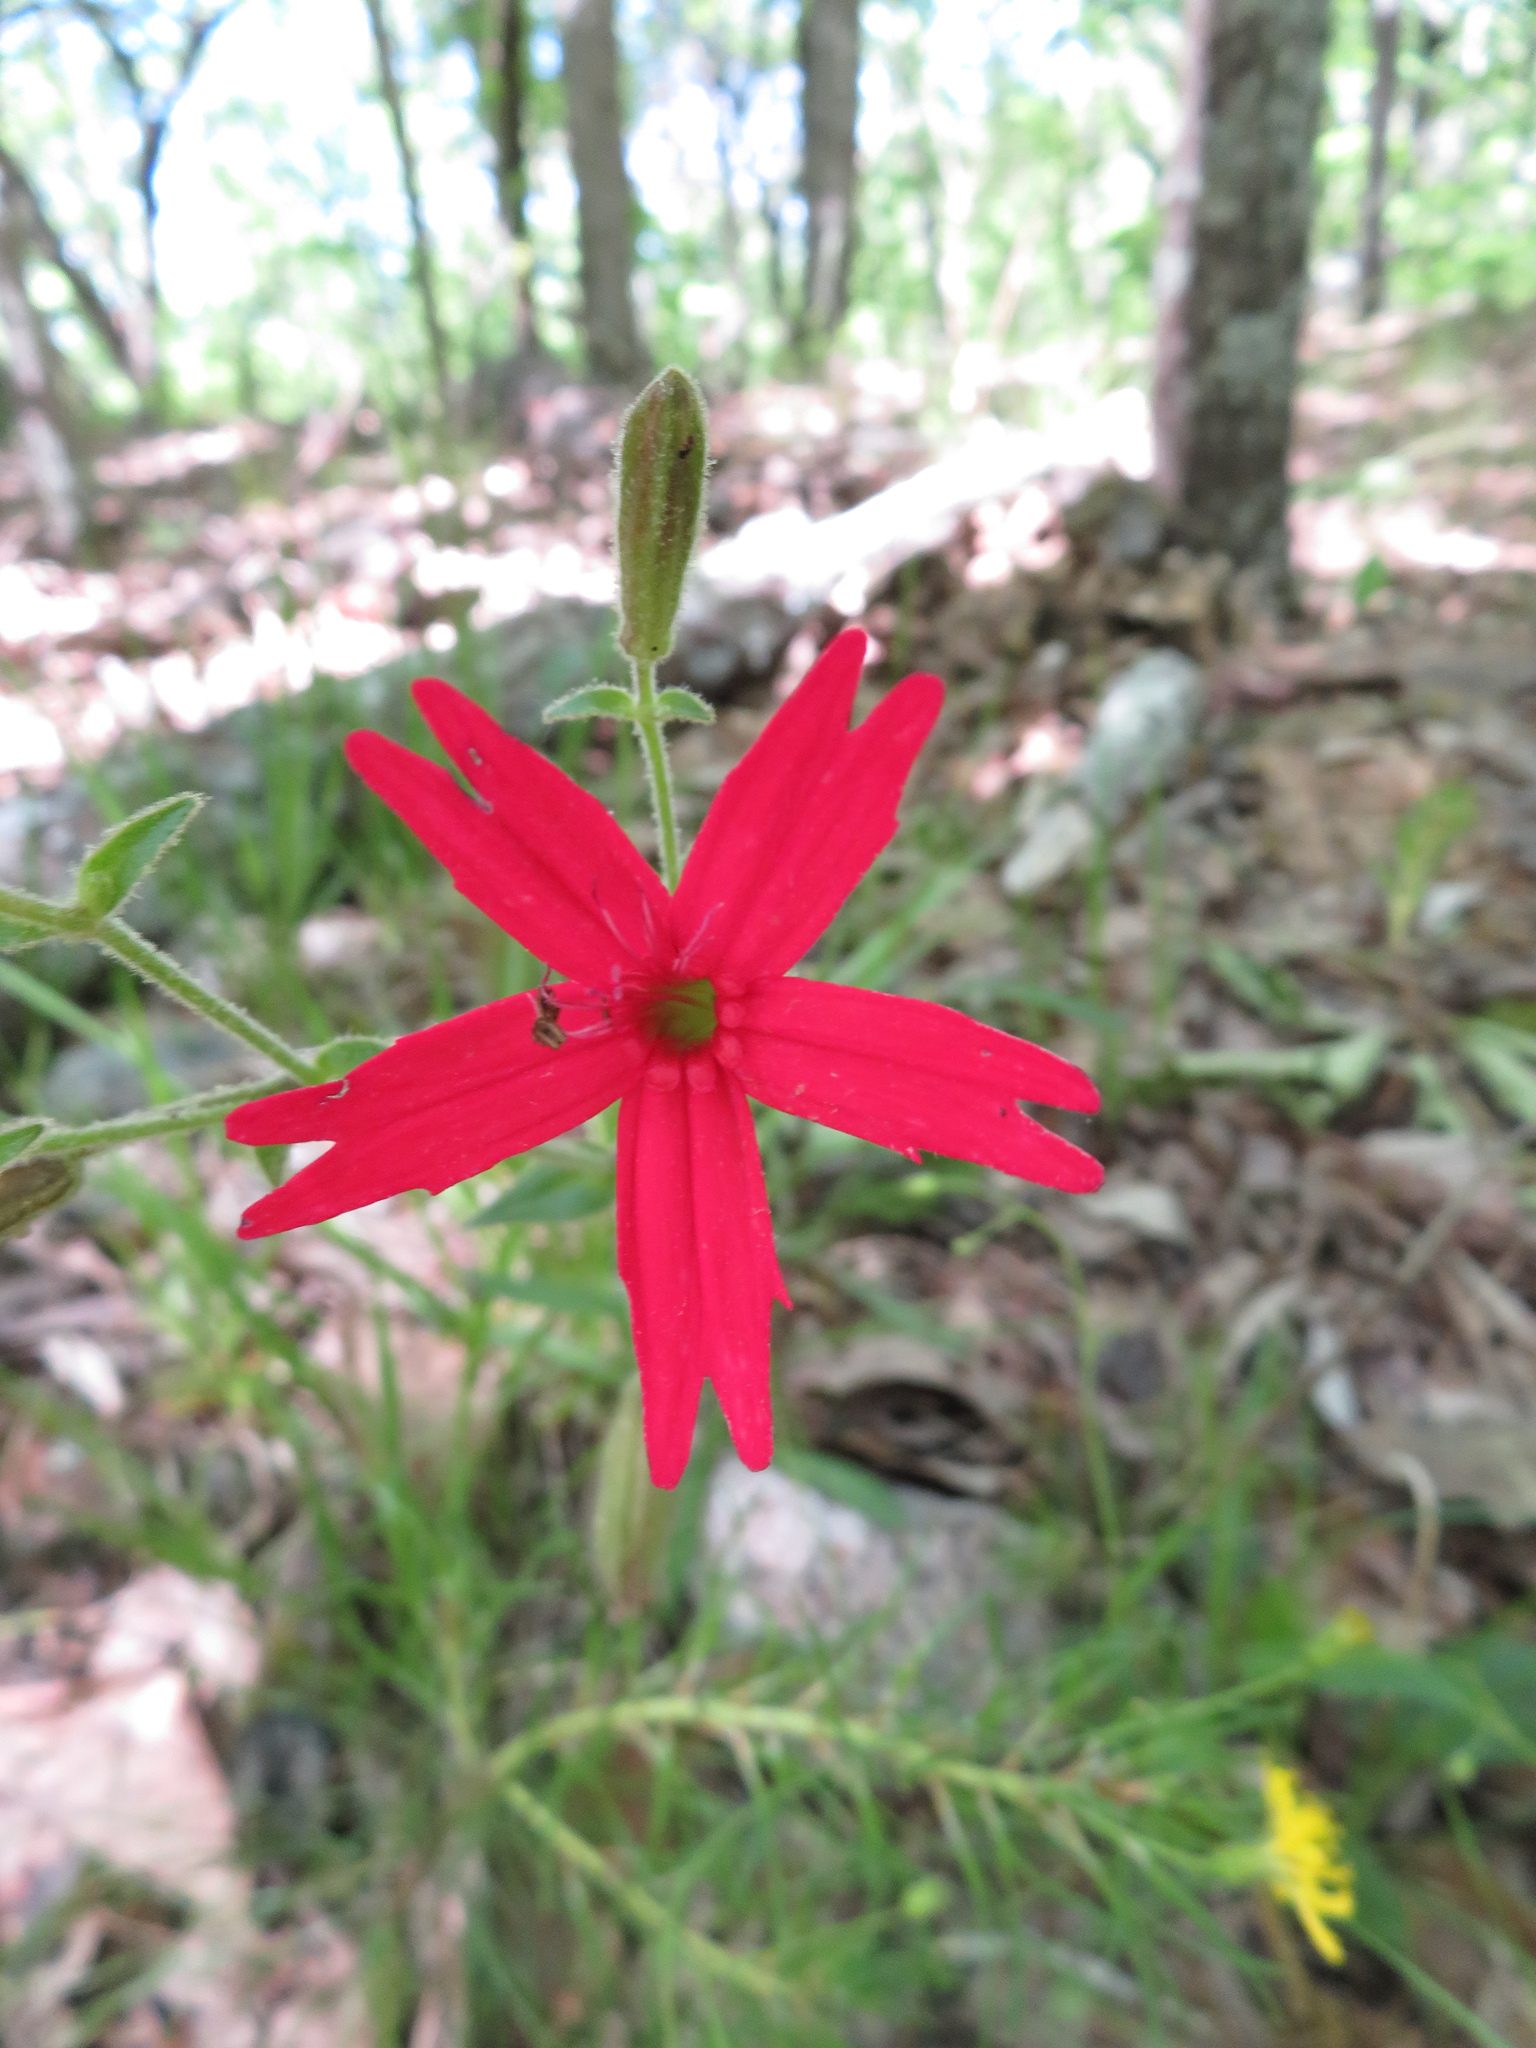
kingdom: Plantae
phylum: Tracheophyta
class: Magnoliopsida
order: Caryophyllales
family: Caryophyllaceae
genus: Silene
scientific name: Silene virginica
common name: Fire-pink
